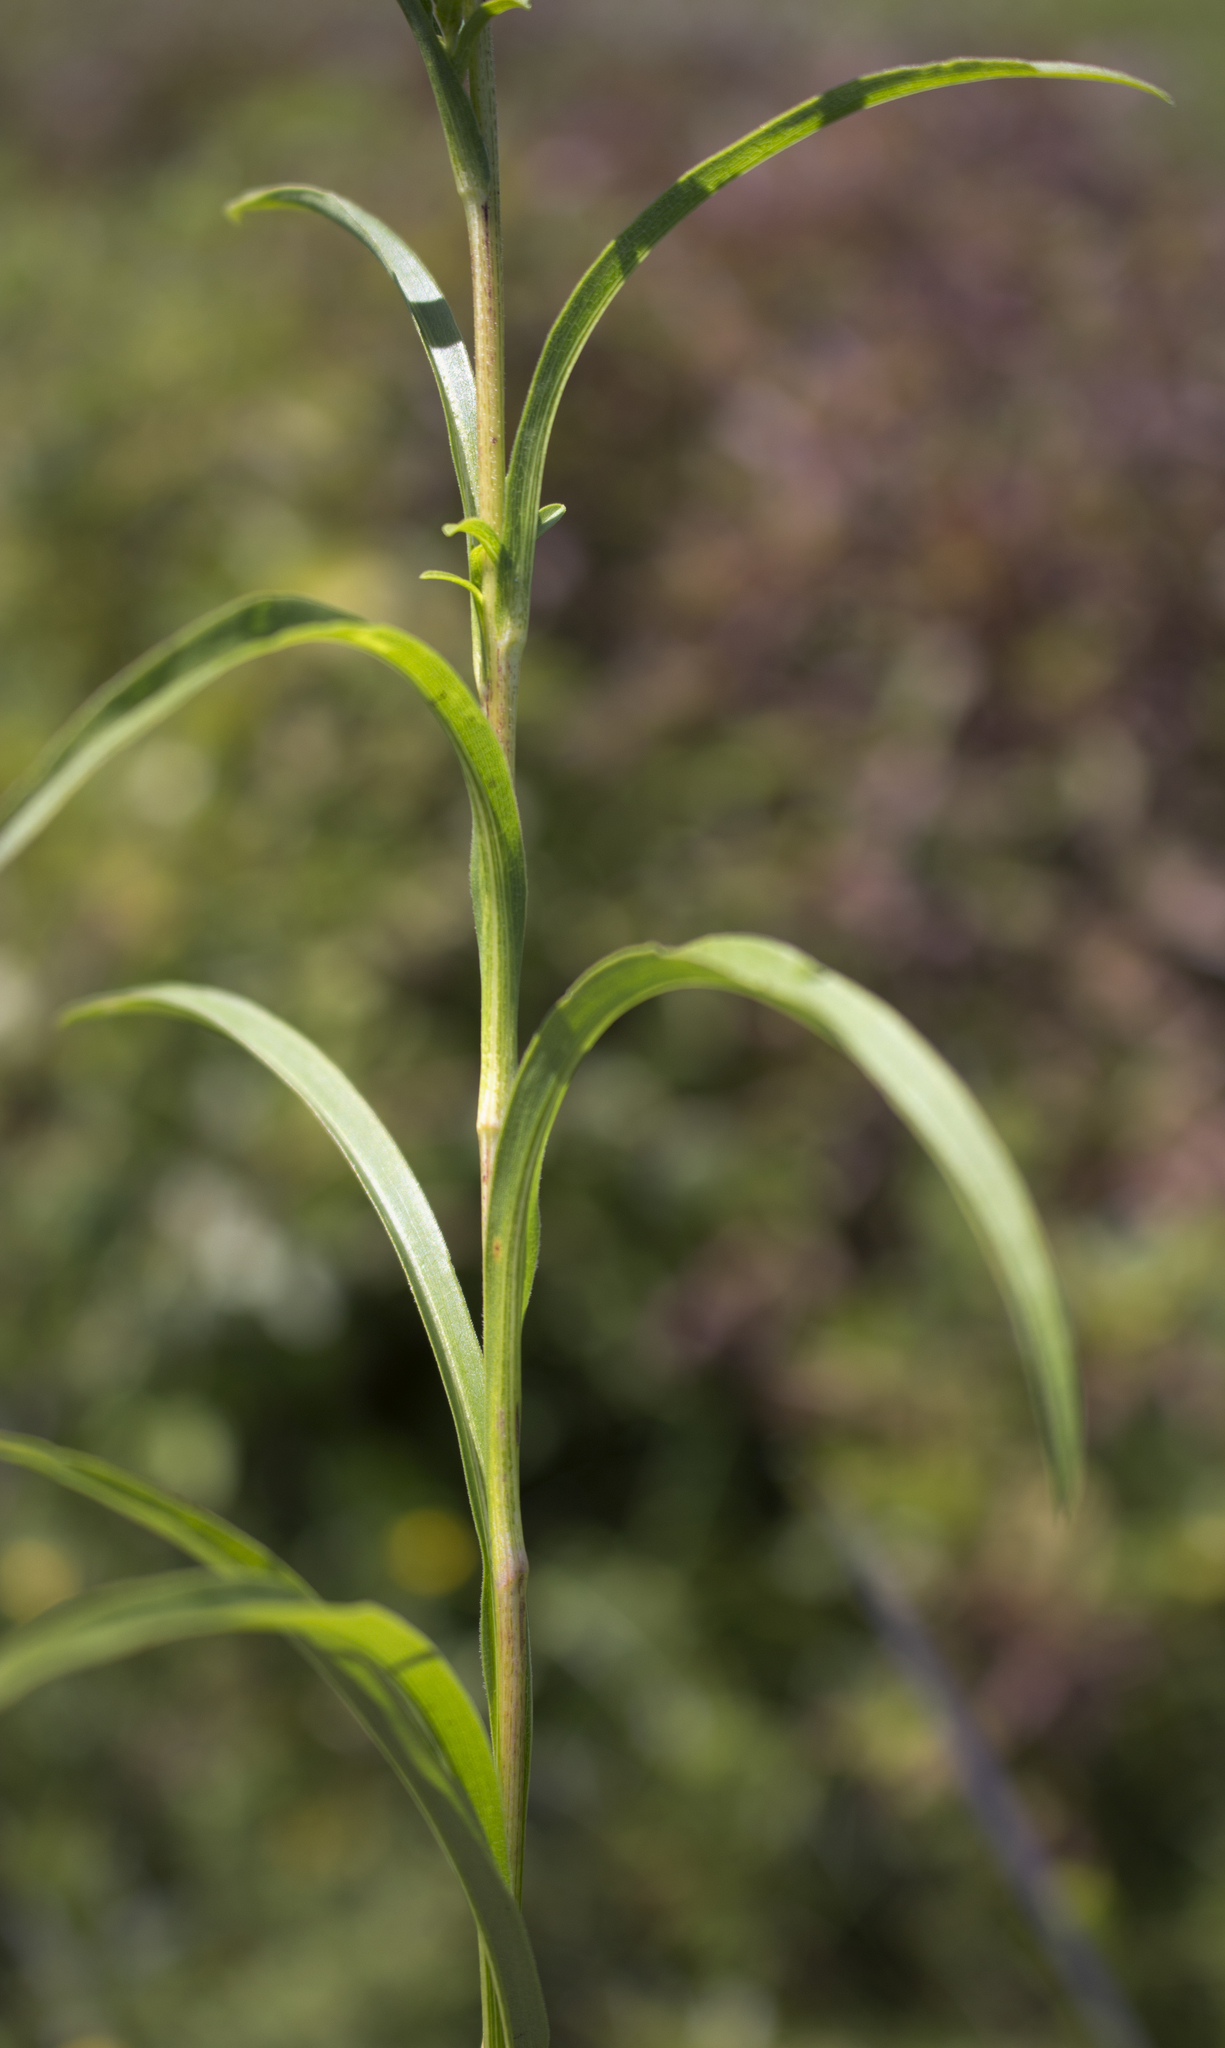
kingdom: Plantae
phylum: Tracheophyta
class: Magnoliopsida
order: Asterales
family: Asteraceae
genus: Solidago
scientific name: Solidago riddellii
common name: Riddell's goldenrod
